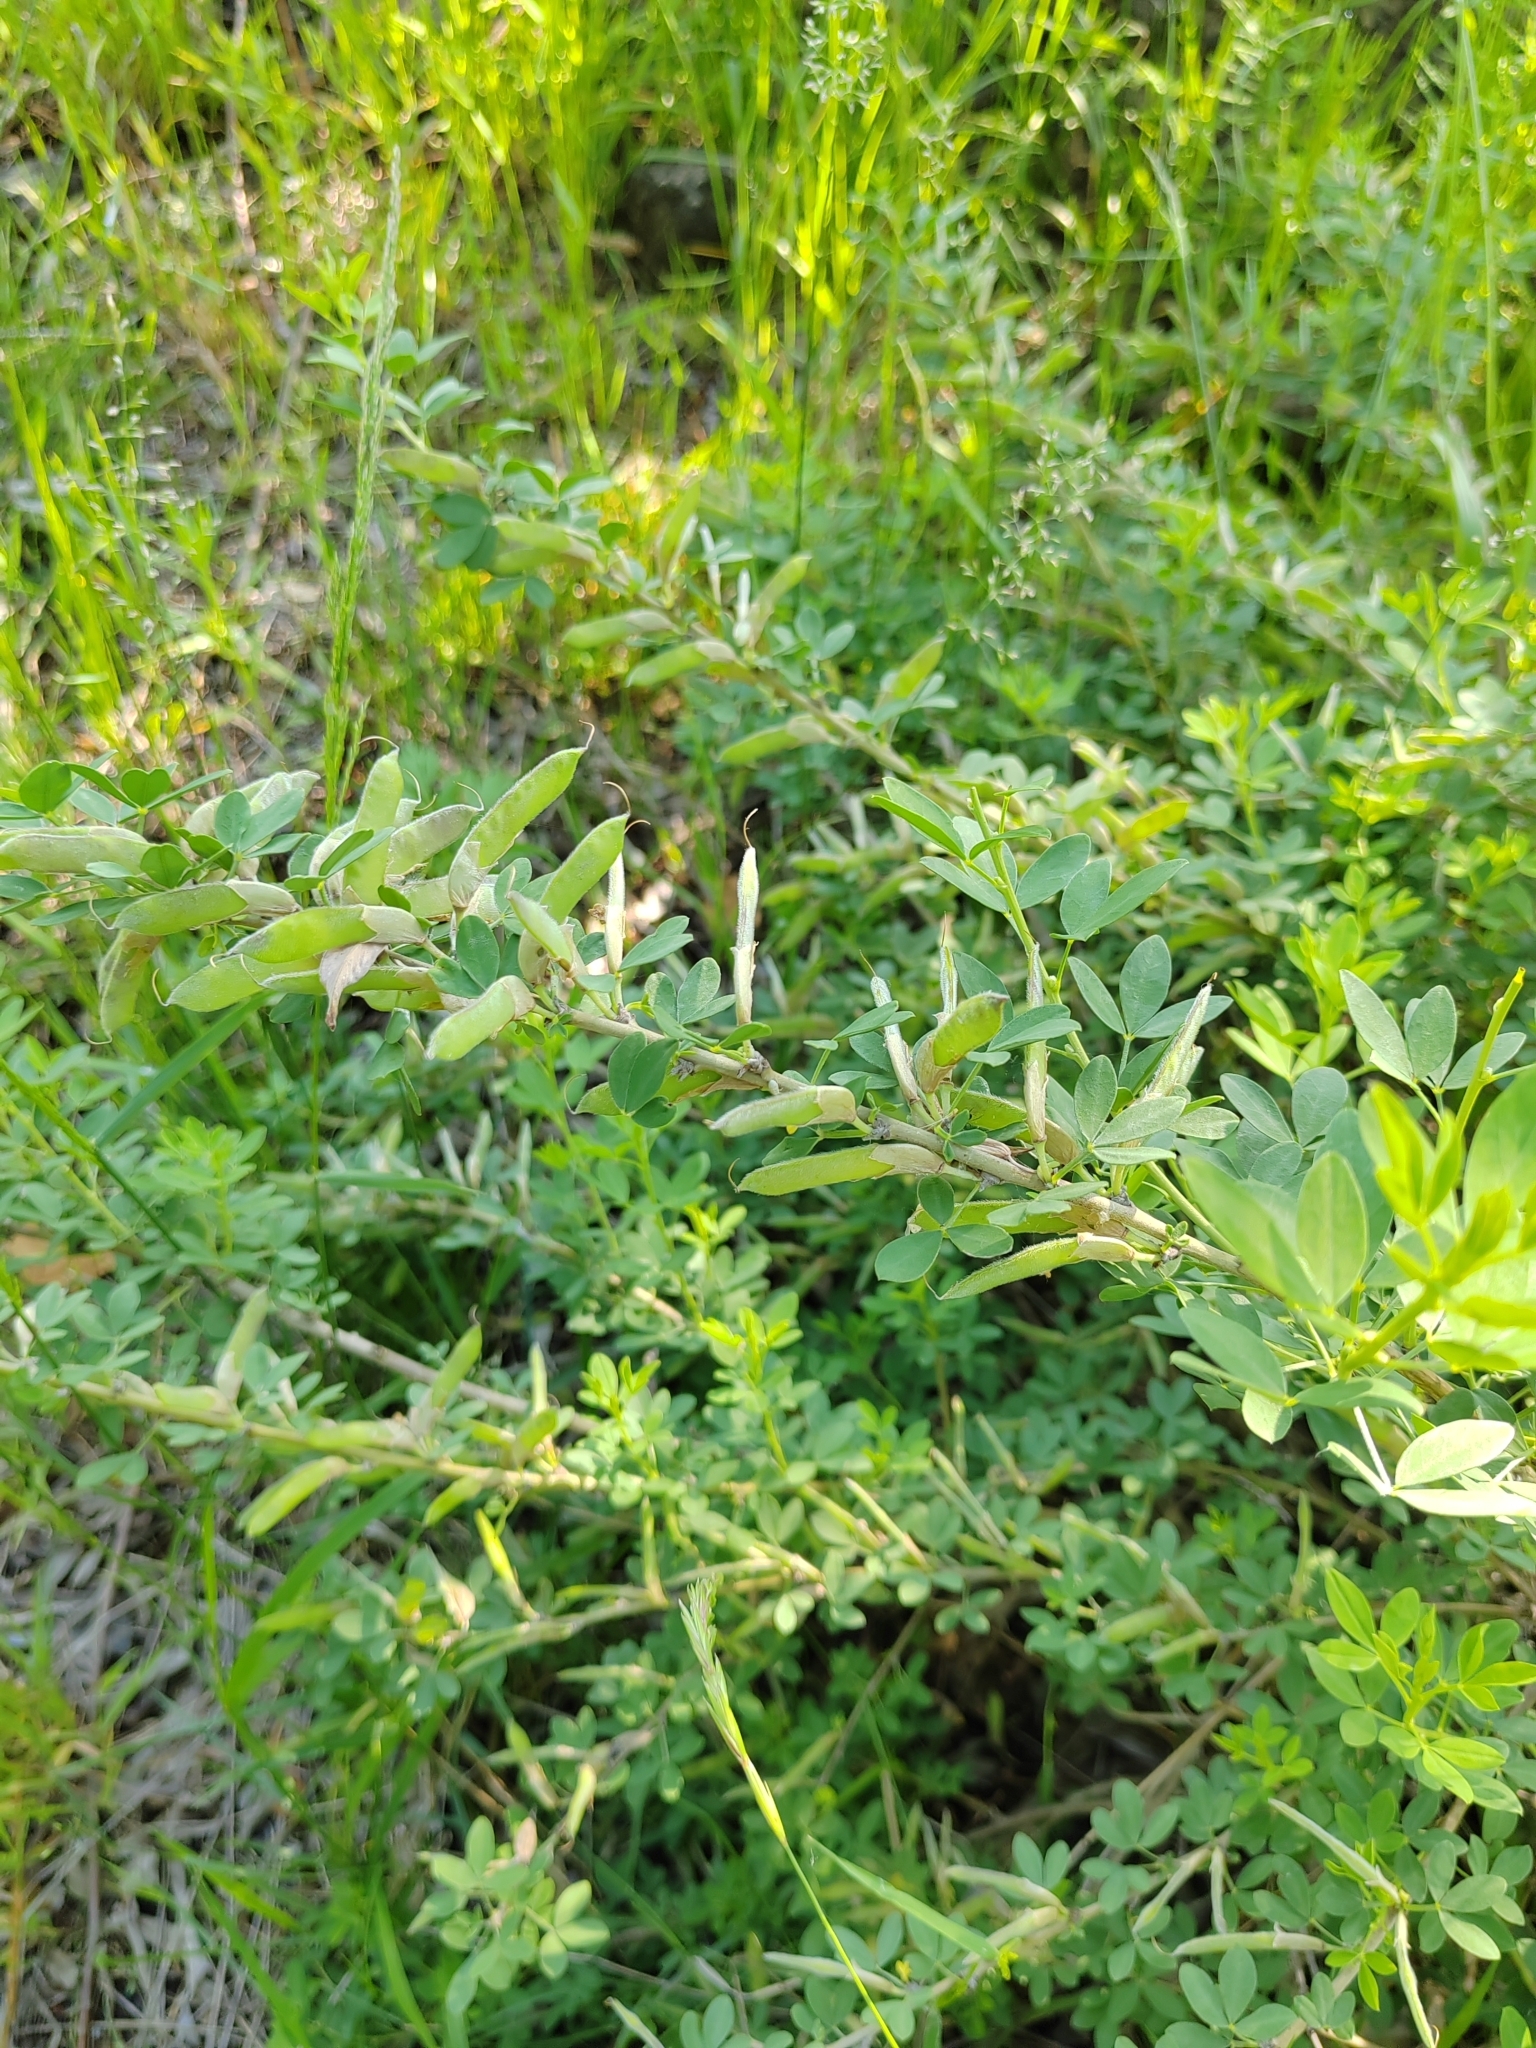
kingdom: Plantae
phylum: Tracheophyta
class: Magnoliopsida
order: Fabales
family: Fabaceae
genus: Chamaecytisus
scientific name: Chamaecytisus ruthenicus
